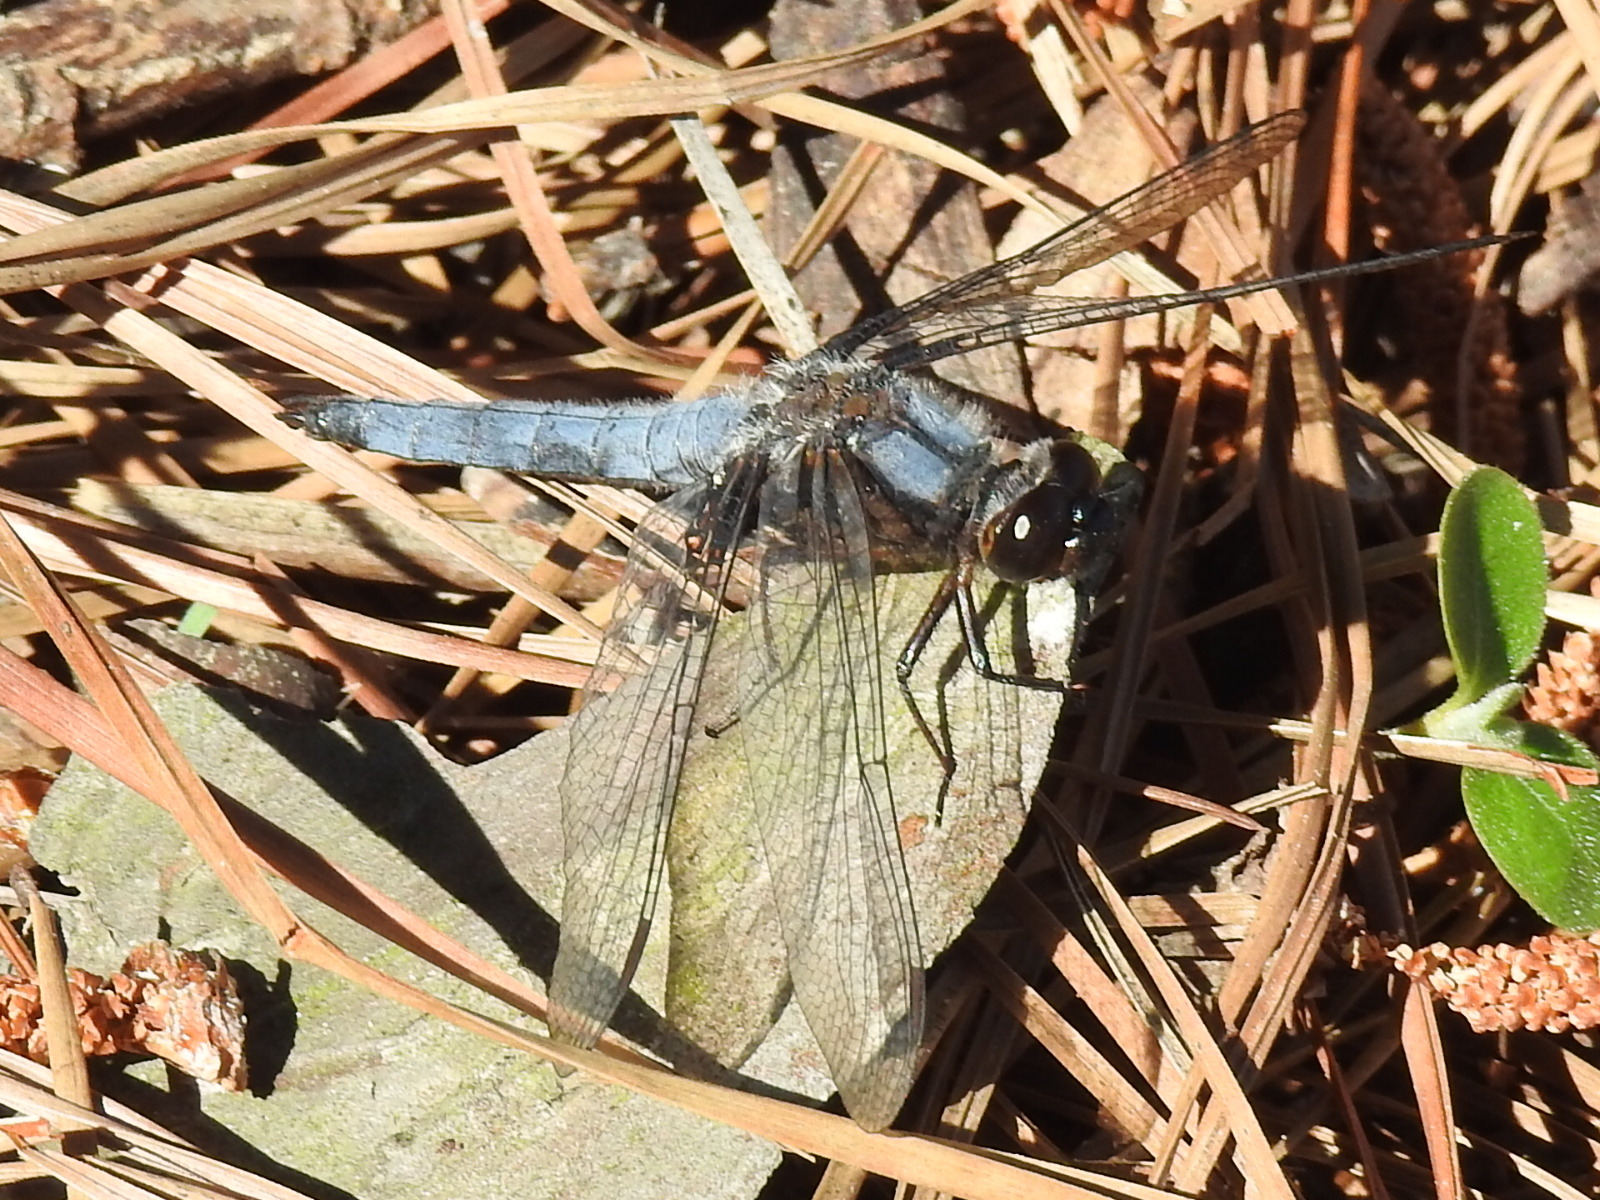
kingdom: Animalia
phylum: Arthropoda
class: Insecta
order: Odonata
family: Libellulidae
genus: Ladona
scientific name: Ladona deplanata
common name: Blue corporal
